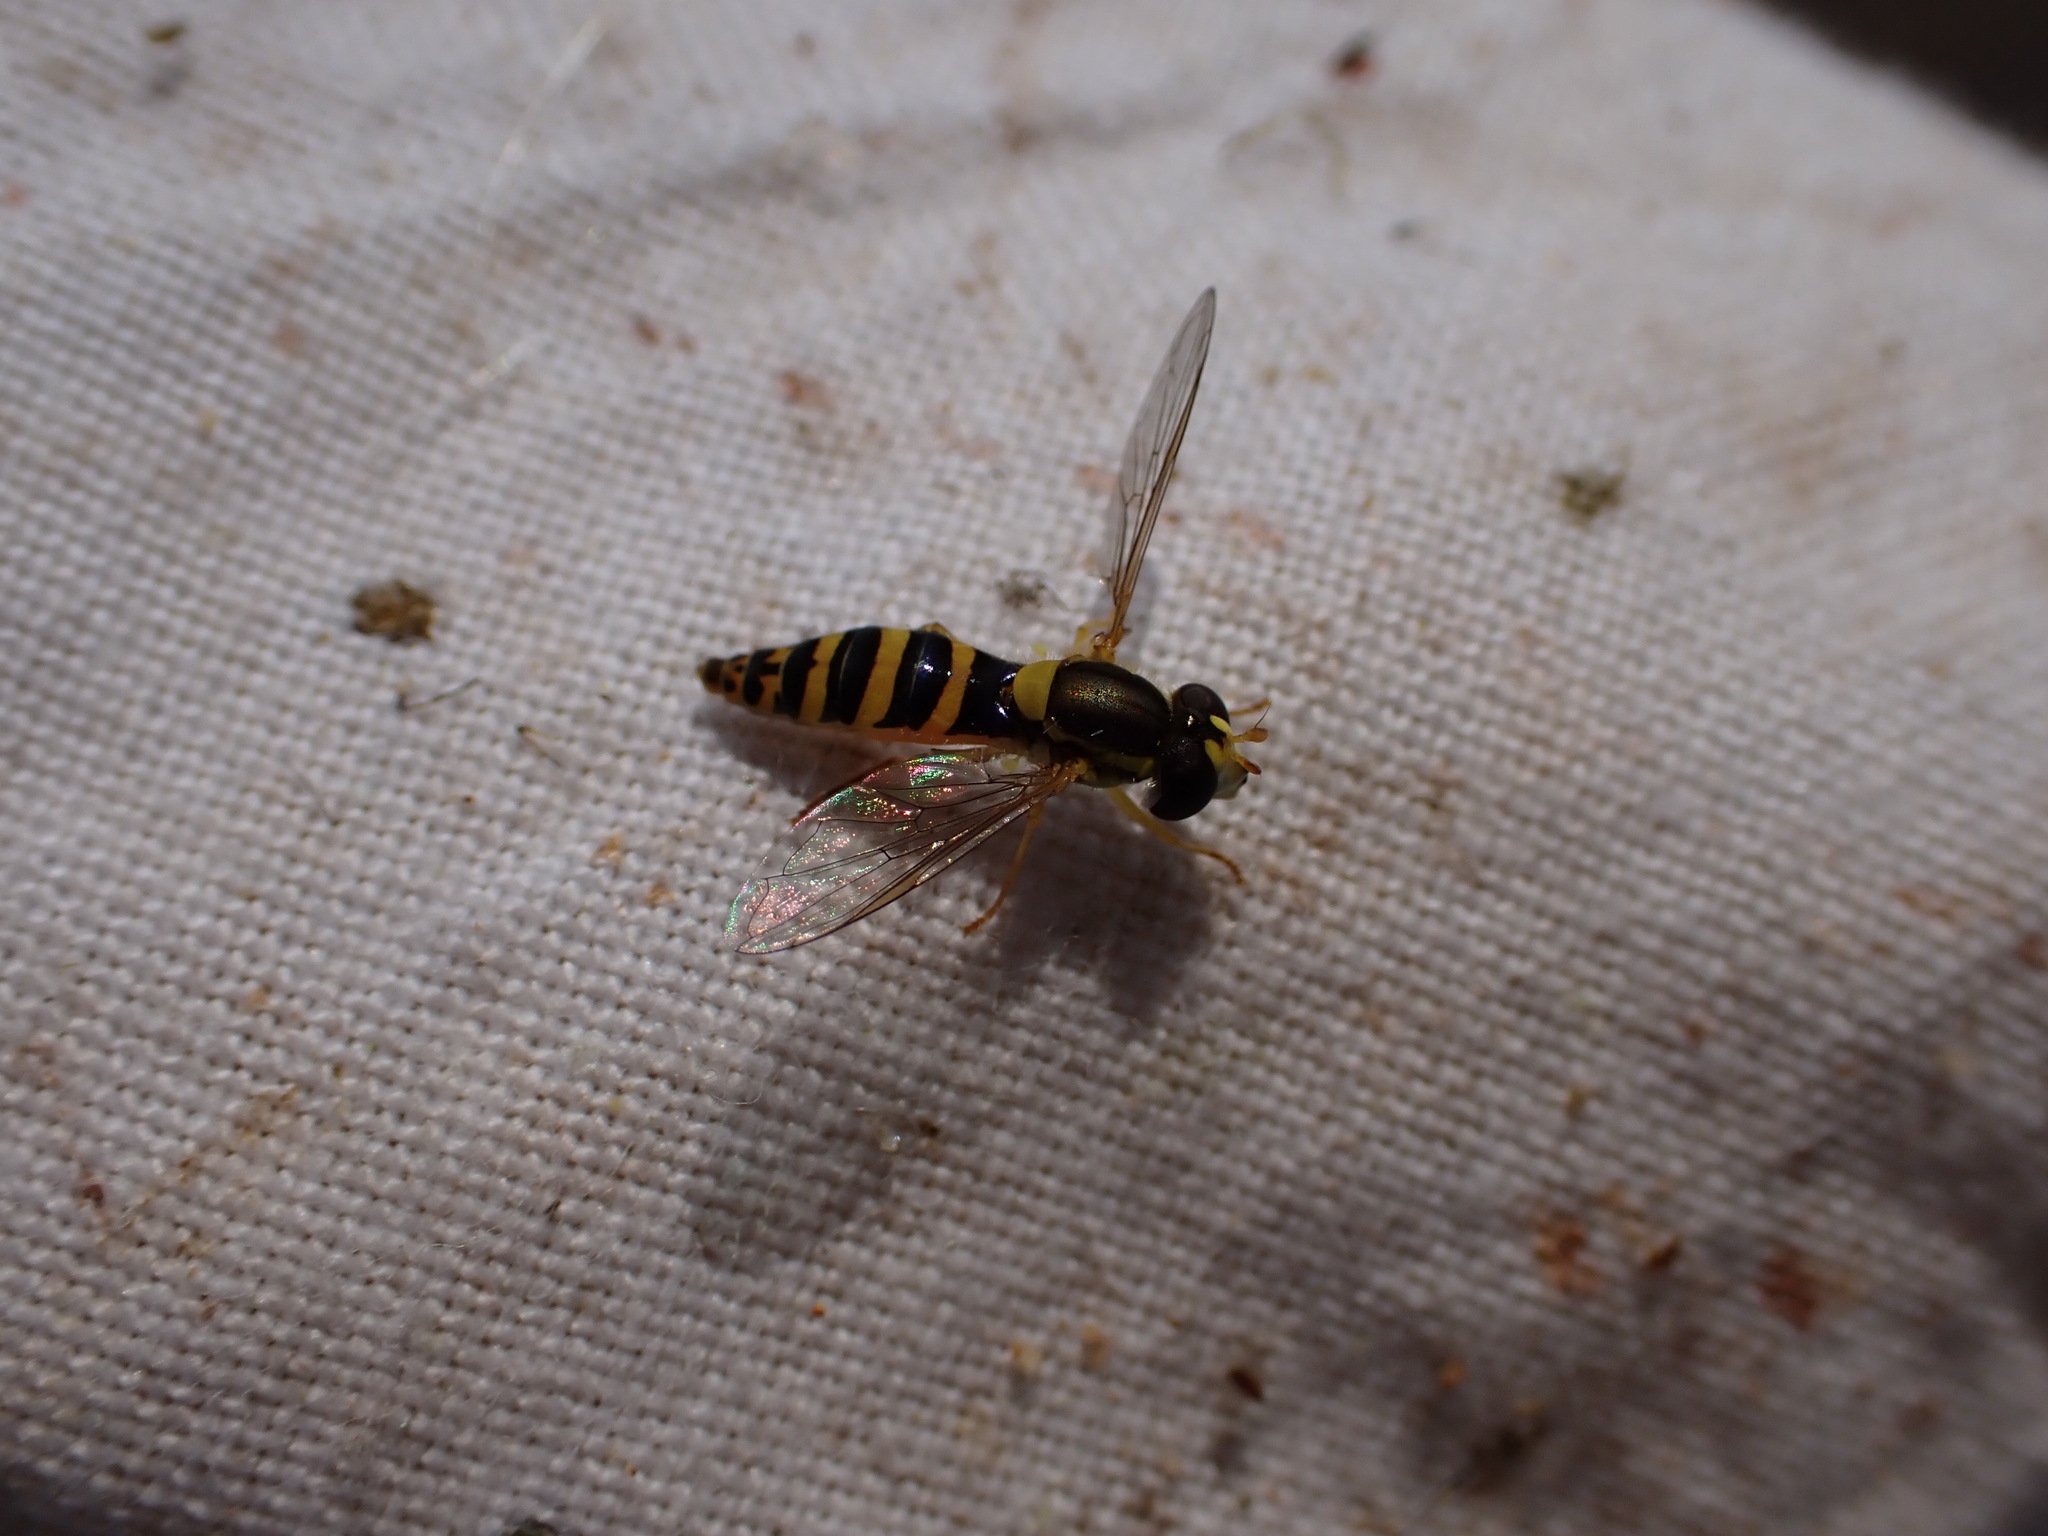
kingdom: Animalia
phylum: Arthropoda
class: Insecta
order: Diptera
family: Syrphidae
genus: Sphaerophoria
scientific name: Sphaerophoria
